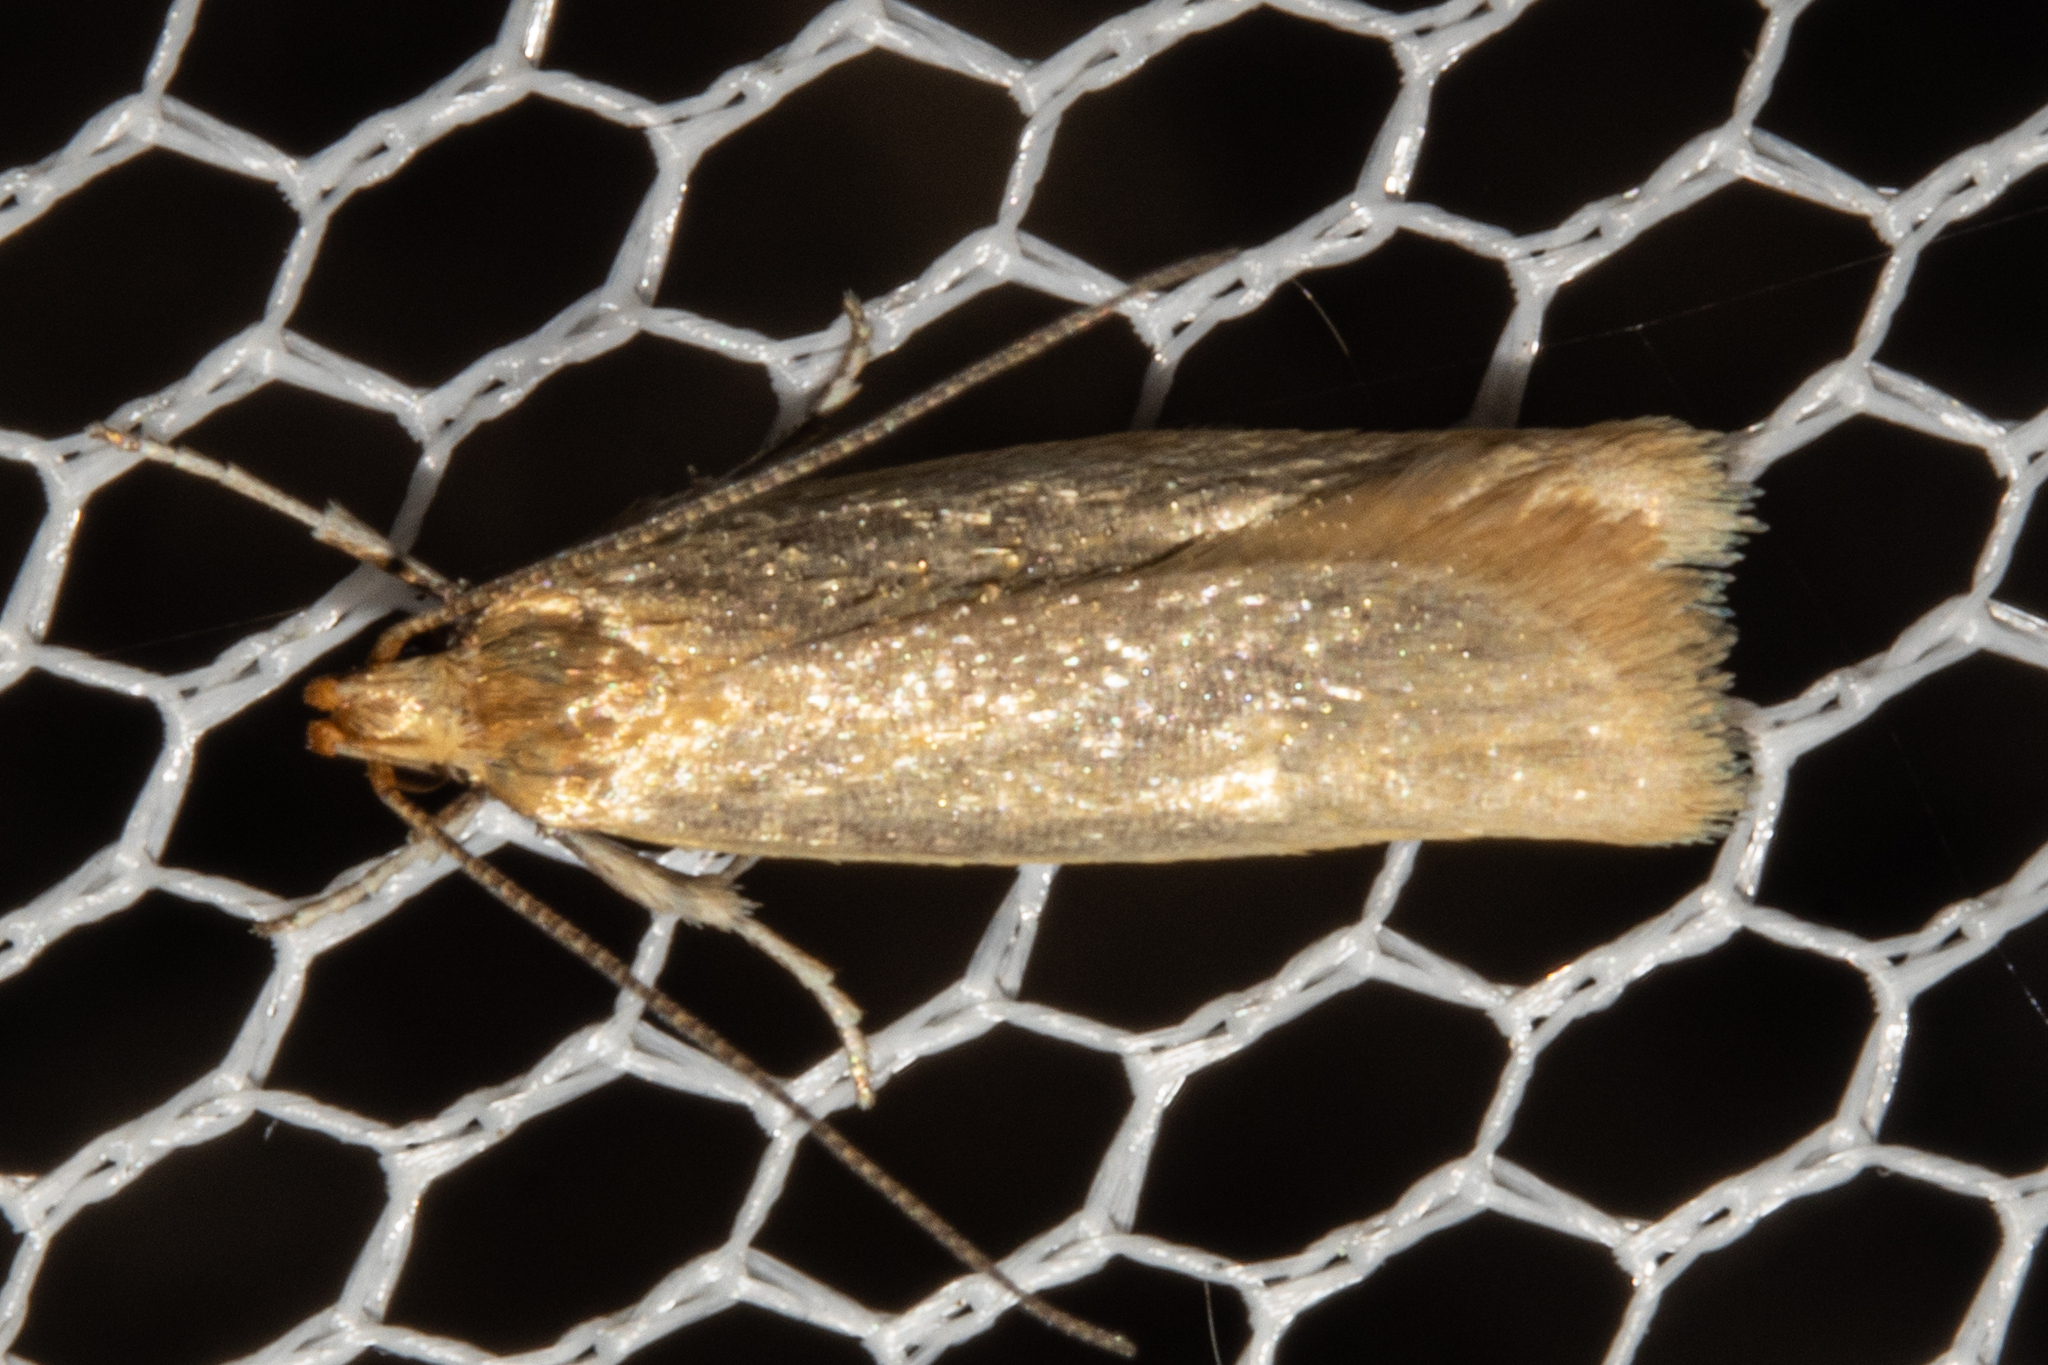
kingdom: Animalia
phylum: Arthropoda
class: Insecta
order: Lepidoptera
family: Oecophoridae
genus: Gymnobathra
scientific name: Gymnobathra parca
